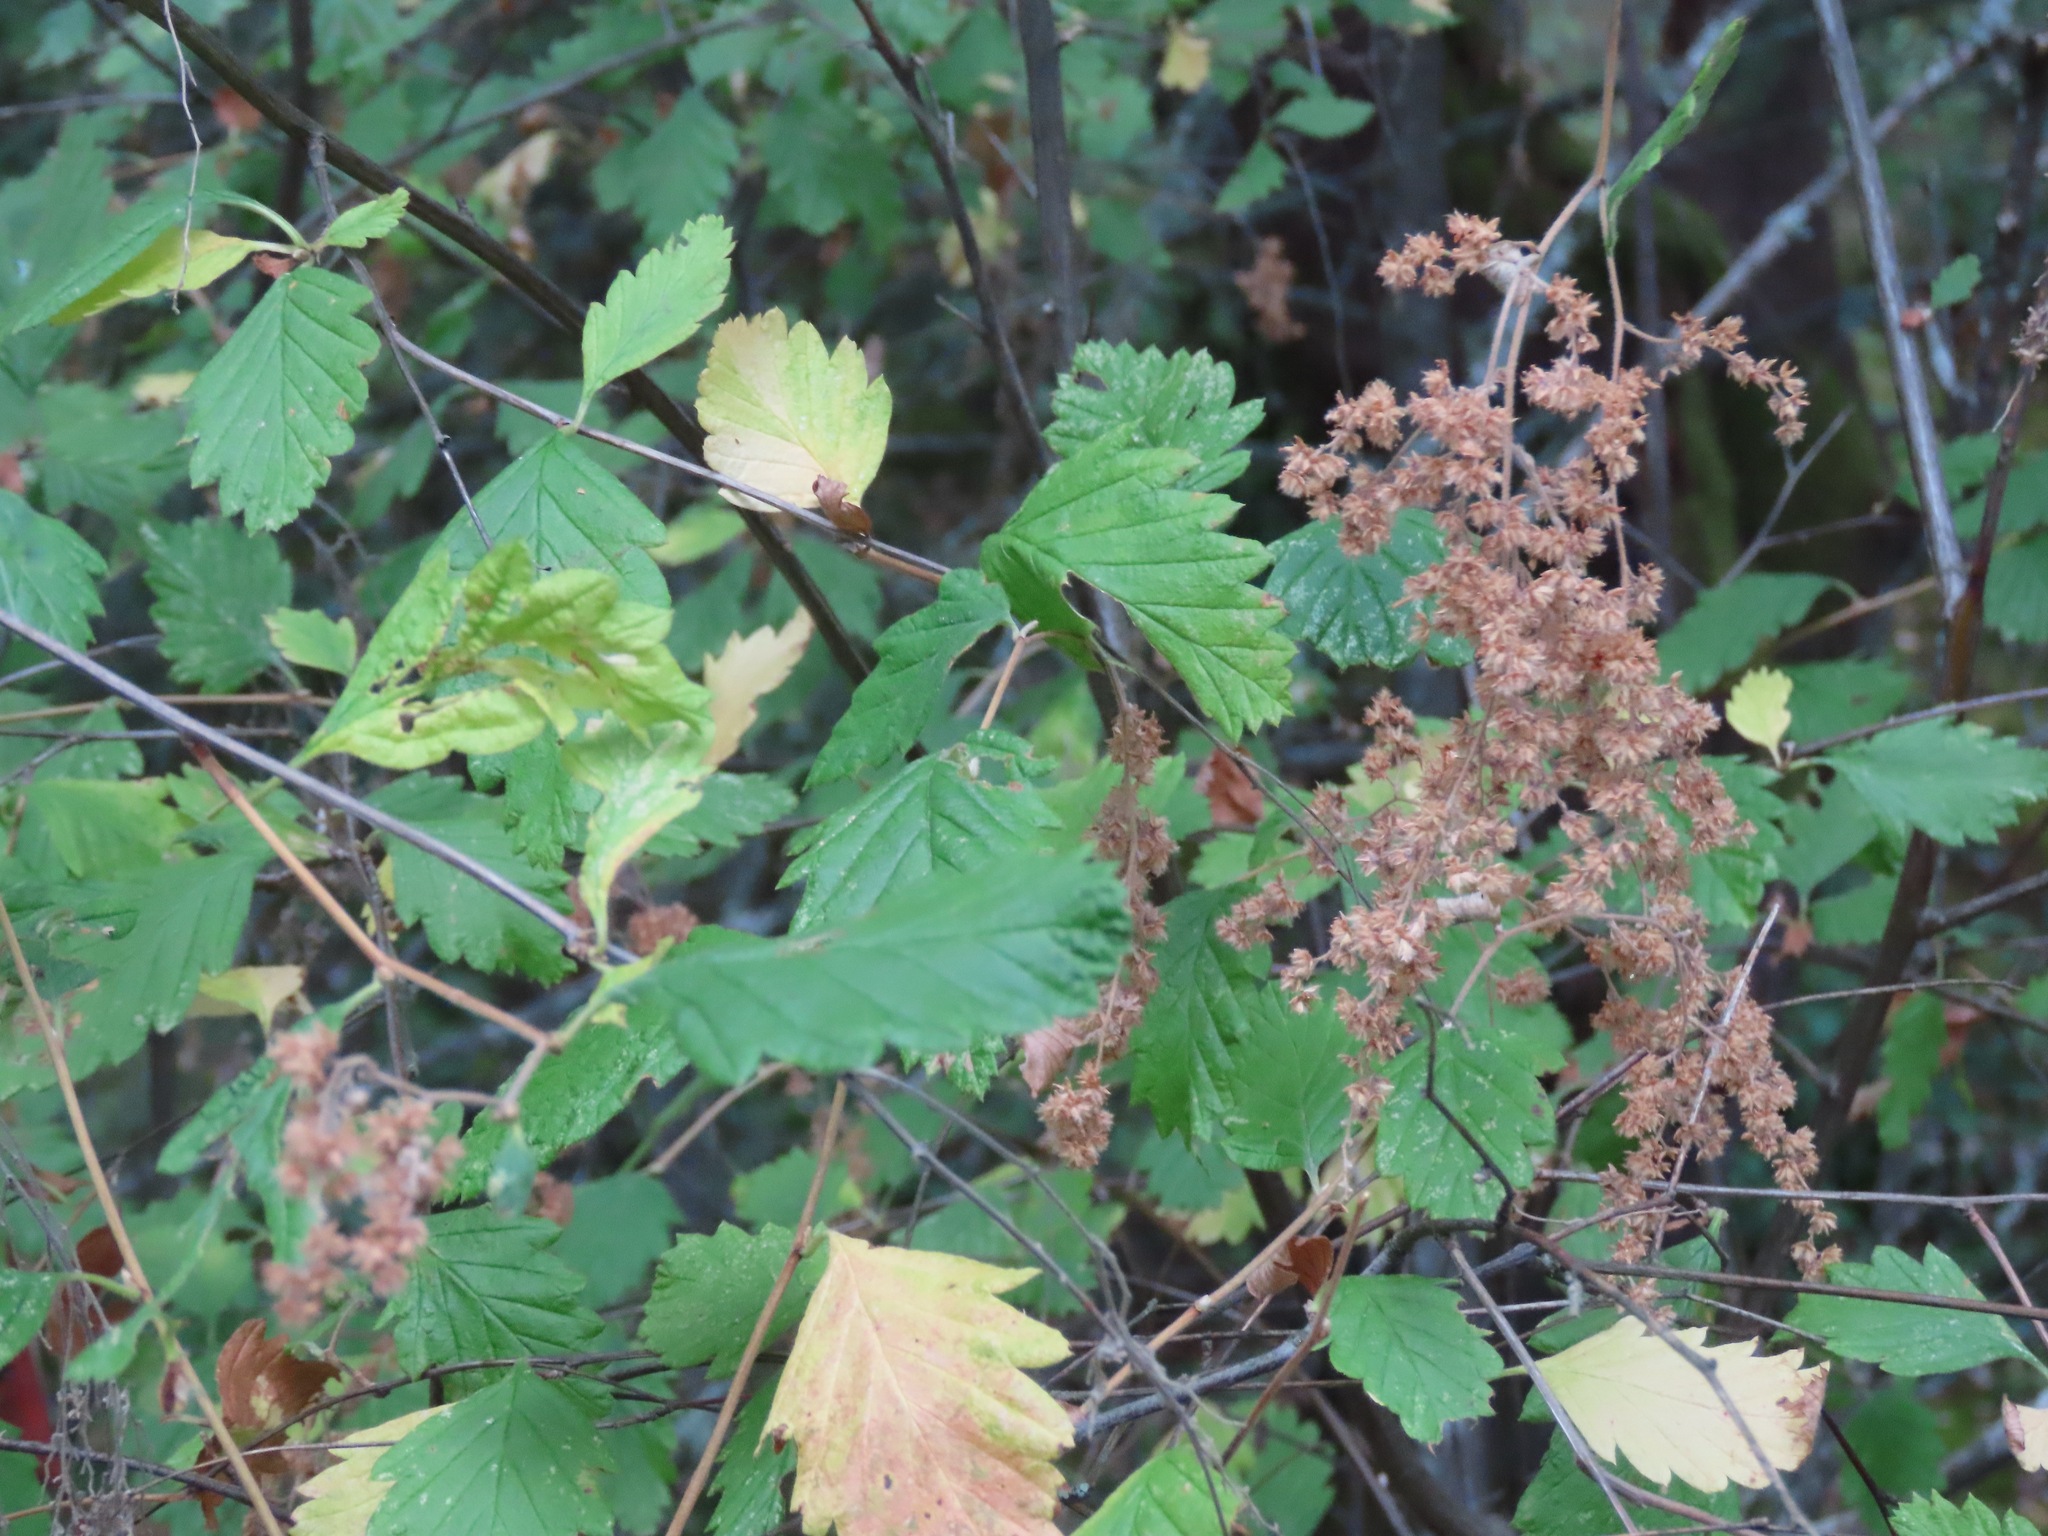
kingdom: Plantae
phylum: Tracheophyta
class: Magnoliopsida
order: Rosales
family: Rosaceae
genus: Holodiscus
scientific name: Holodiscus discolor
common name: Oceanspray
